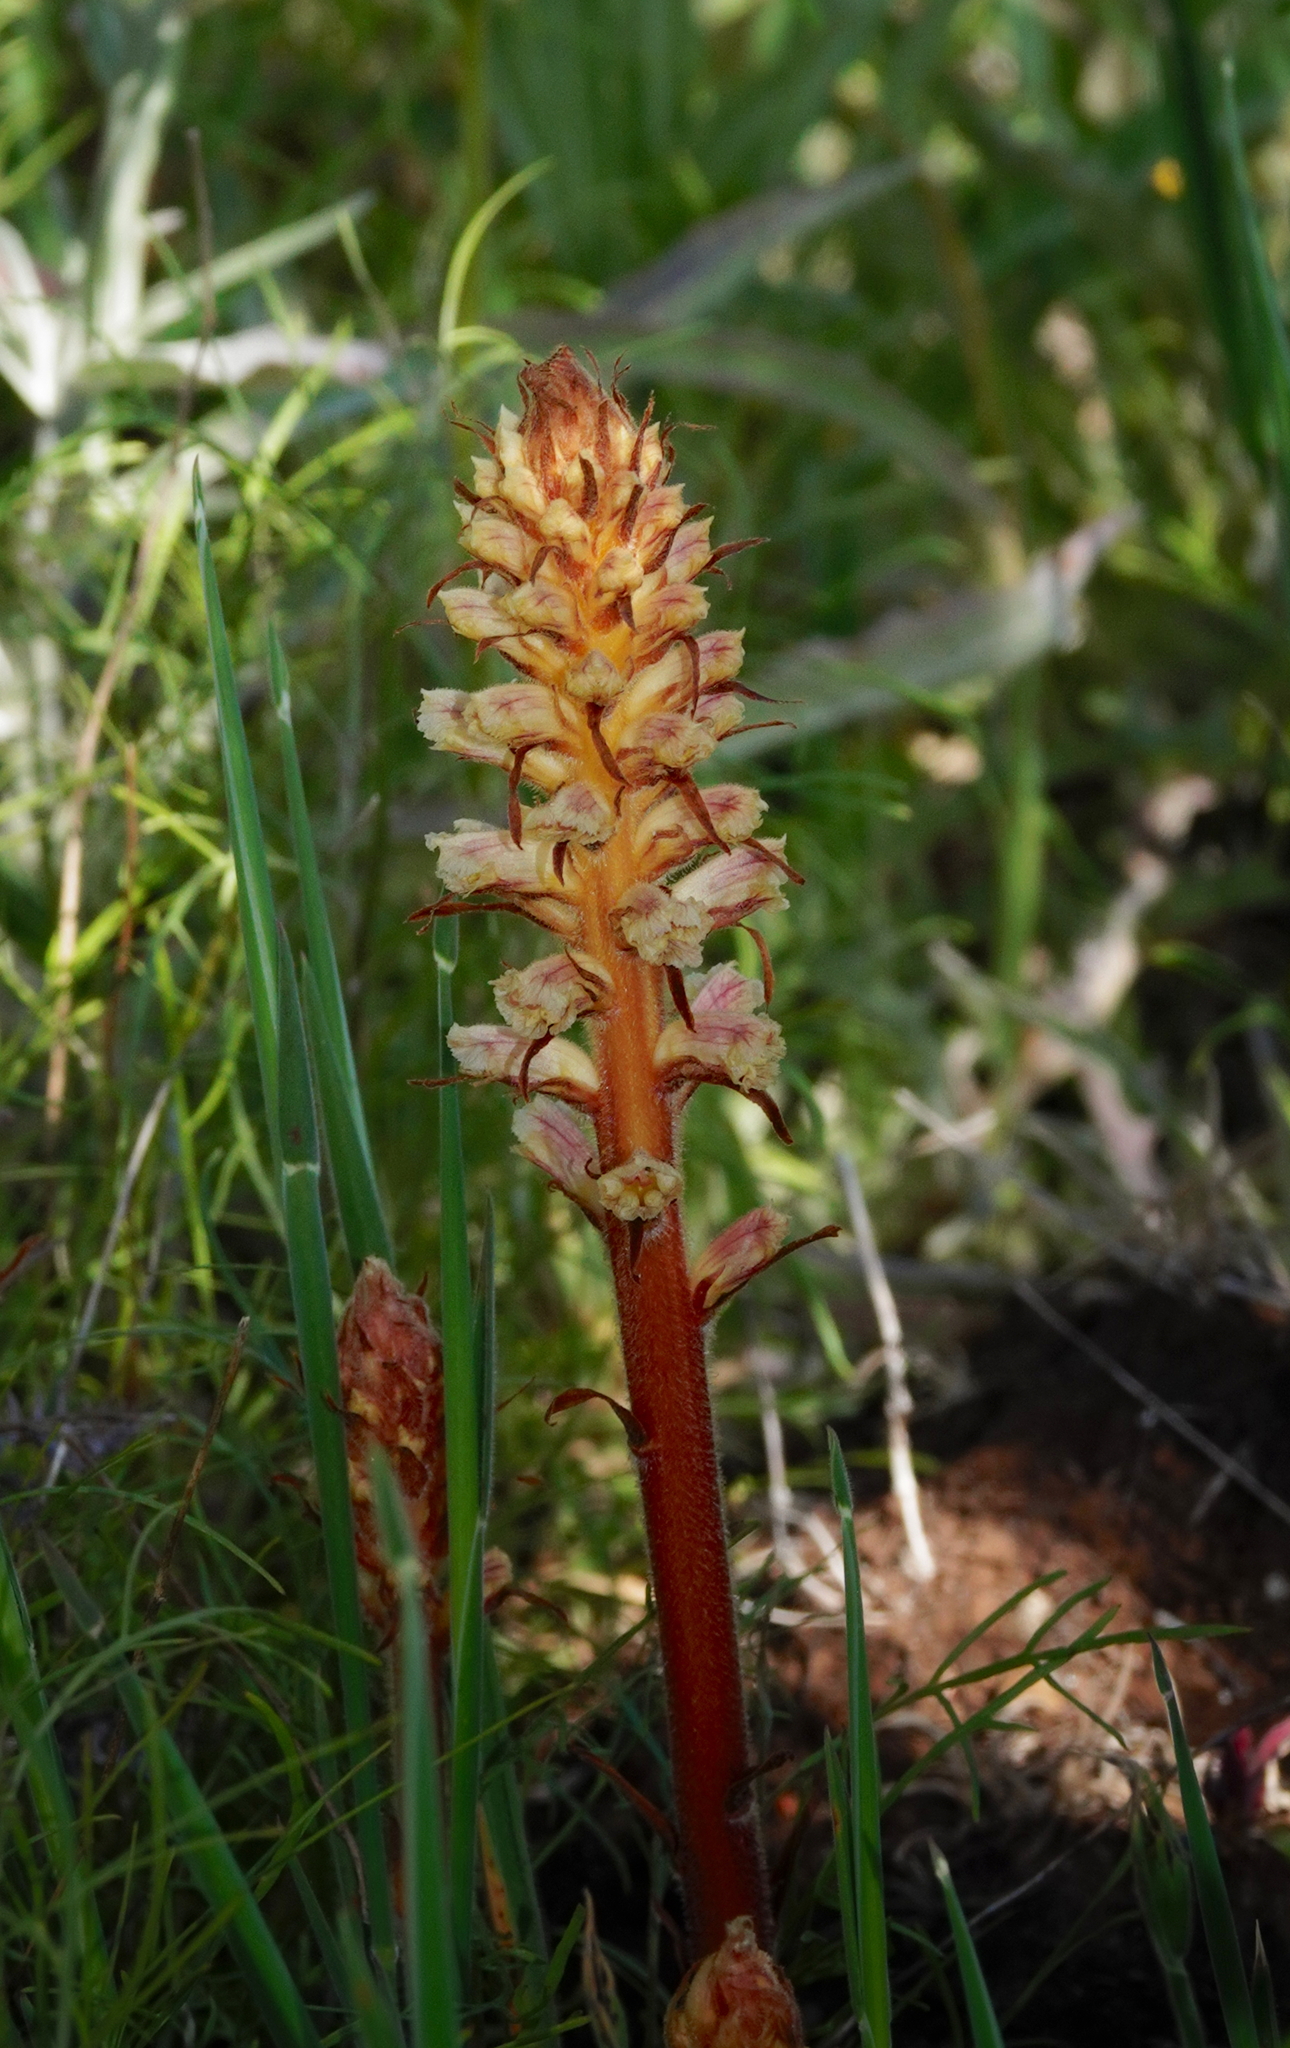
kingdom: Plantae
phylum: Tracheophyta
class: Magnoliopsida
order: Lamiales
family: Orobanchaceae
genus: Orobanche
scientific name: Orobanche minor
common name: Common broomrape
